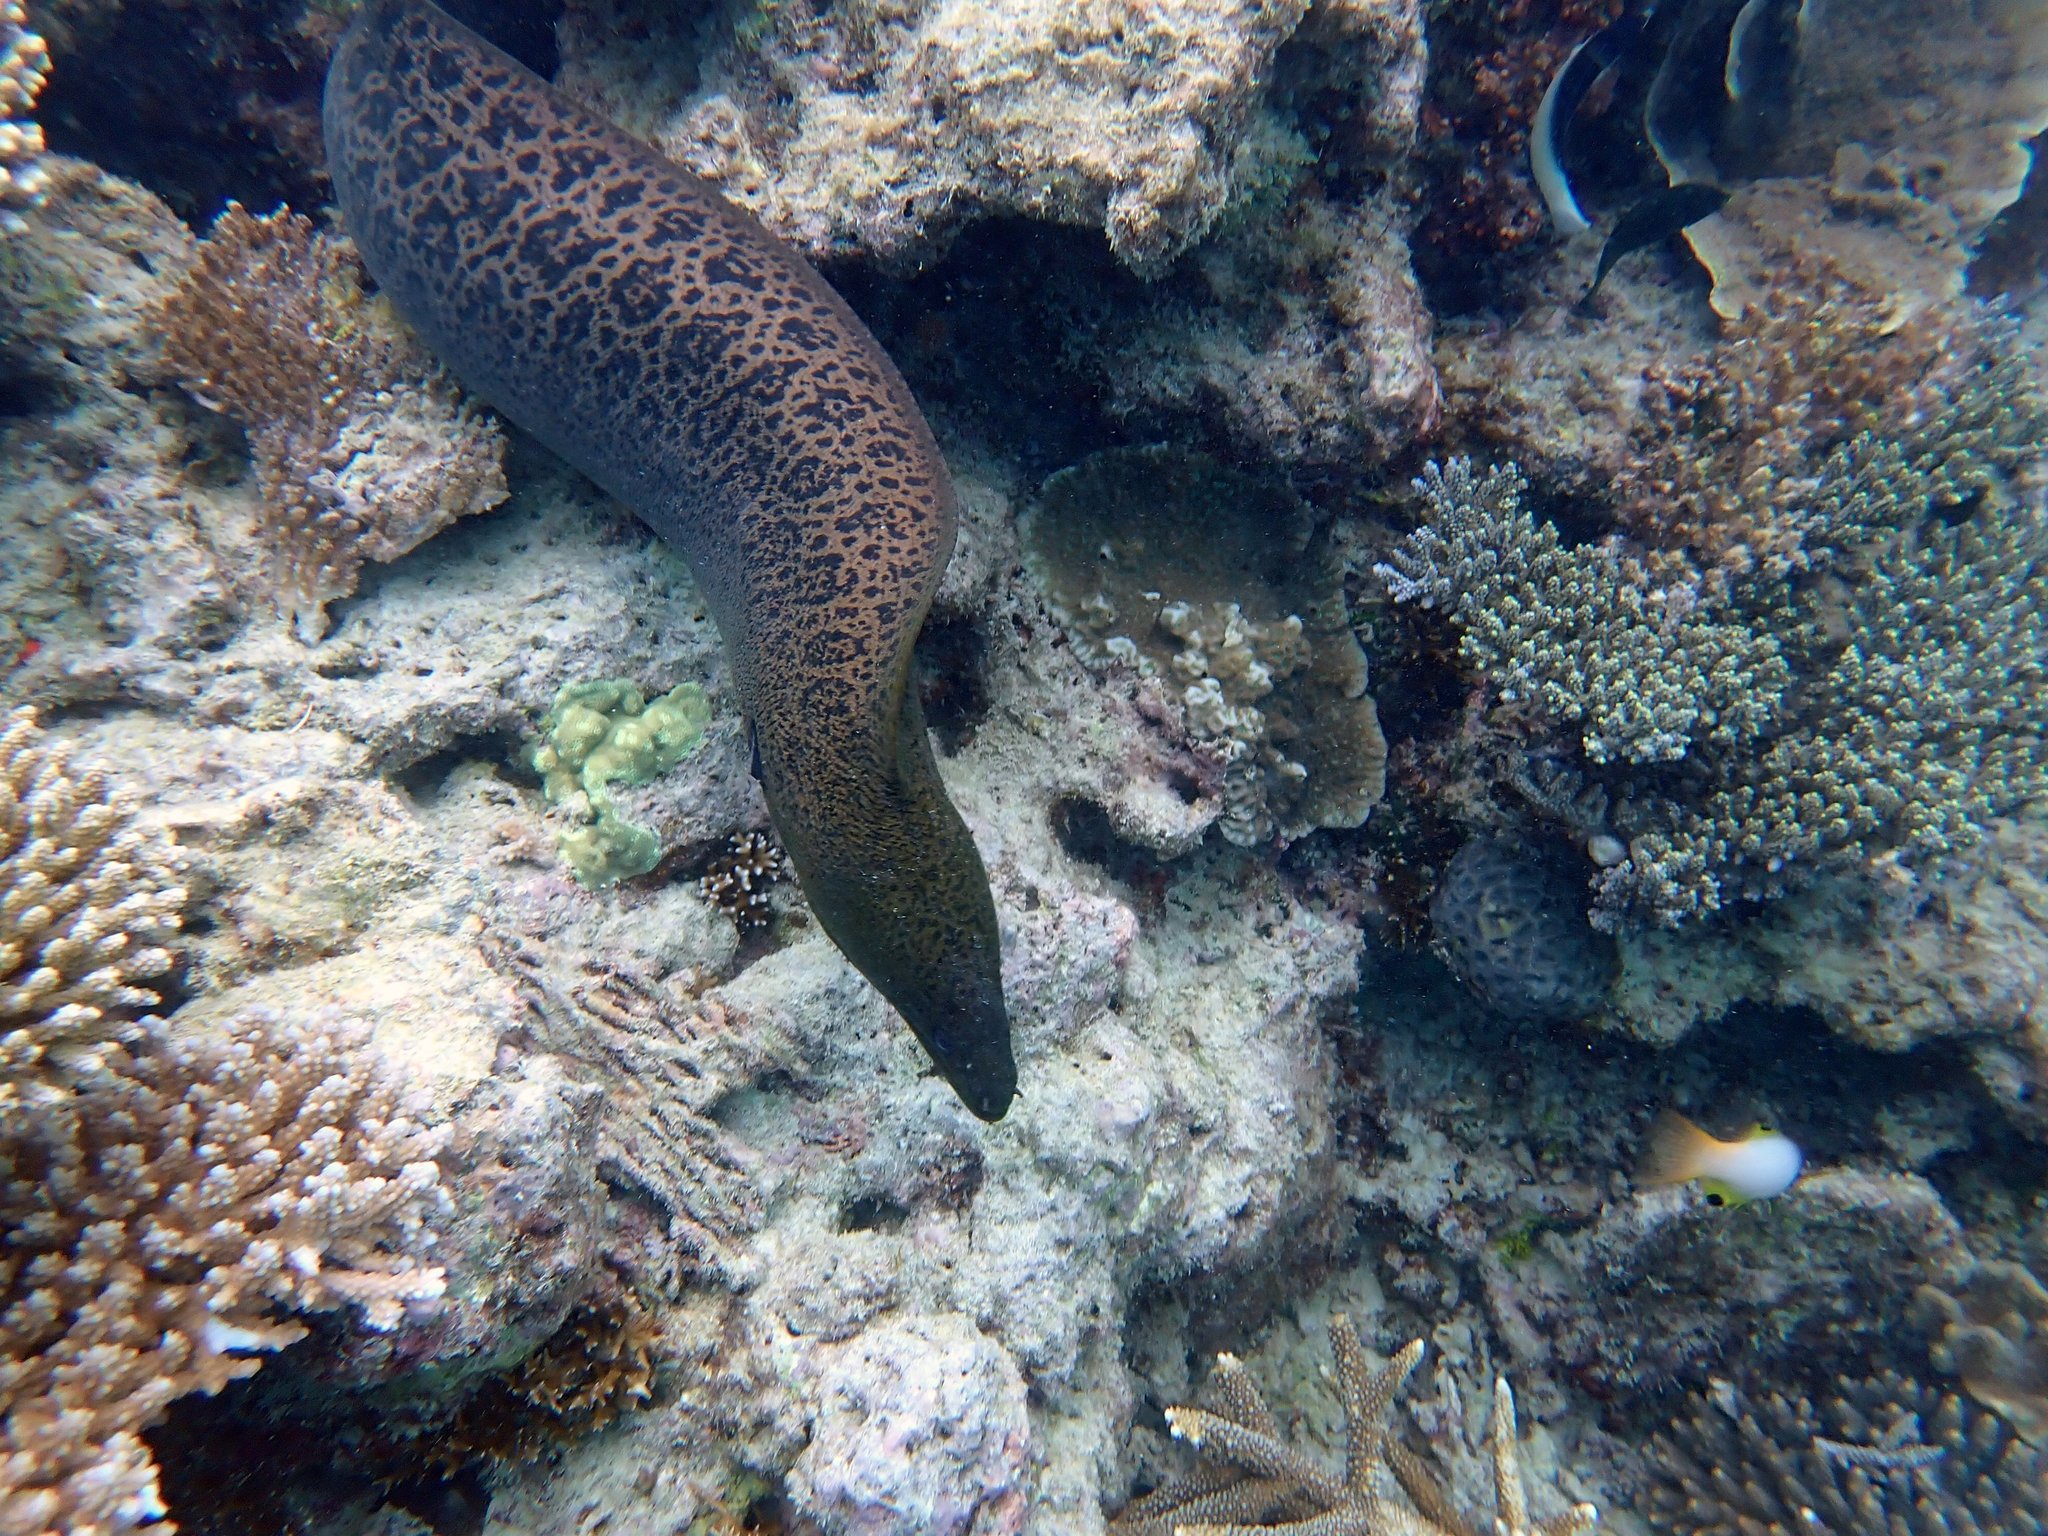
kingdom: Animalia
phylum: Chordata
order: Anguilliformes
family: Muraenidae
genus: Gymnothorax
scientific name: Gymnothorax javanicus
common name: Giant moray
